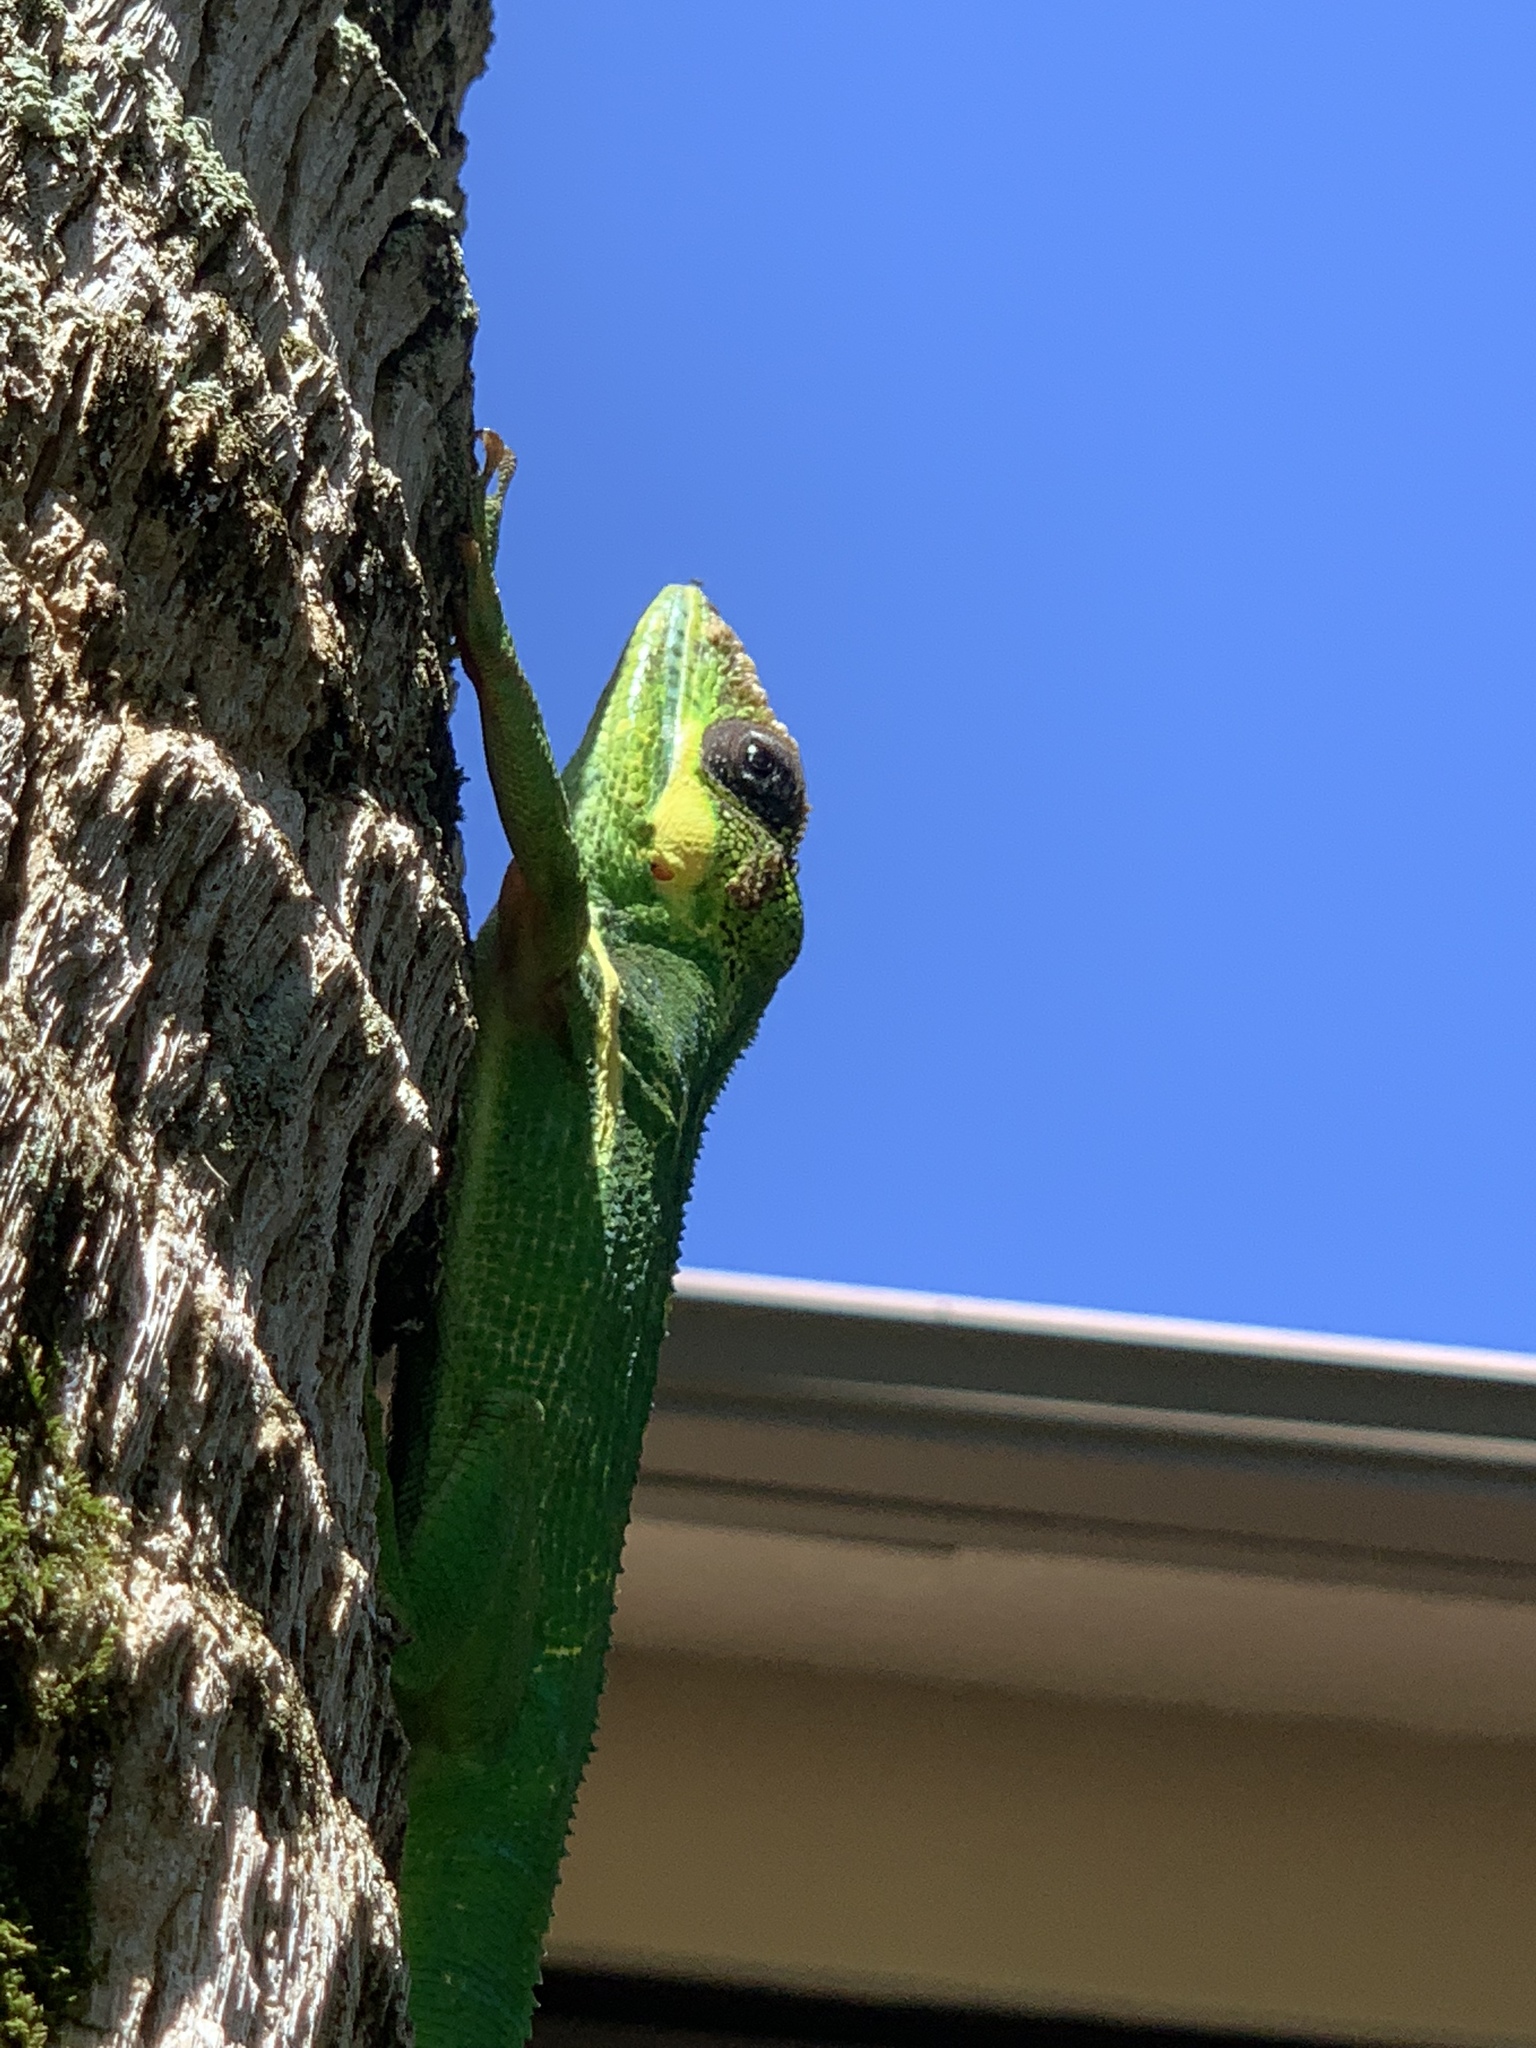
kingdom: Animalia
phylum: Chordata
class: Squamata
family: Dactyloidae
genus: Anolis
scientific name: Anolis equestris
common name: Knight anole
